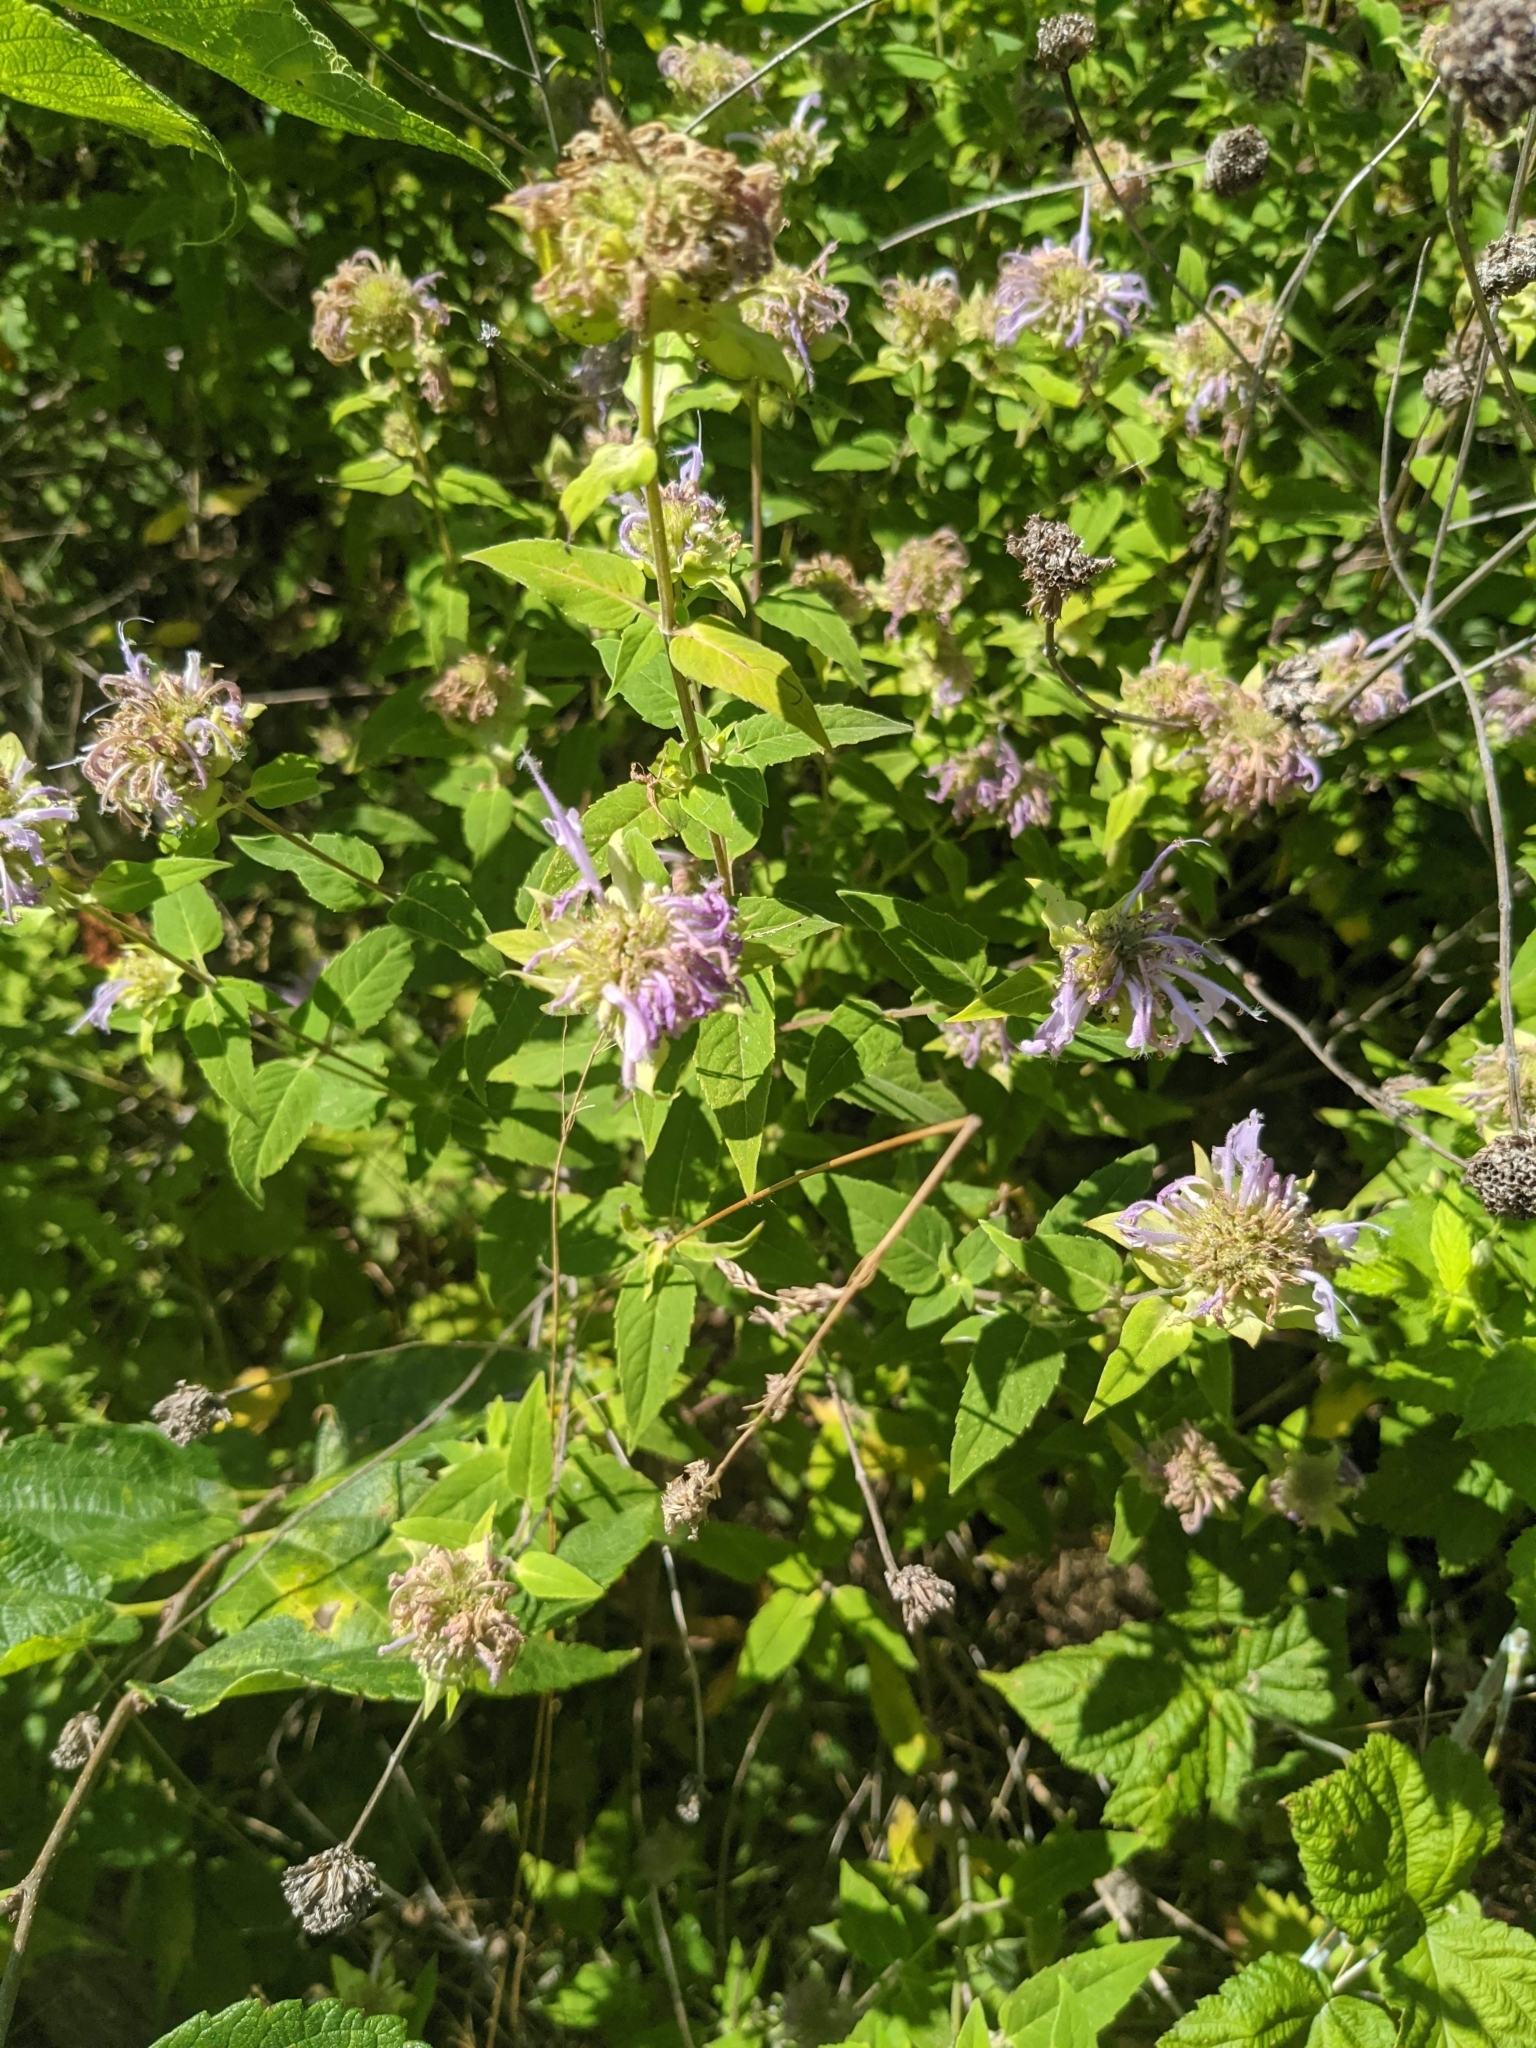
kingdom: Plantae
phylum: Tracheophyta
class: Magnoliopsida
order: Lamiales
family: Lamiaceae
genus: Monarda
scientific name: Monarda fistulosa
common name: Purple beebalm
